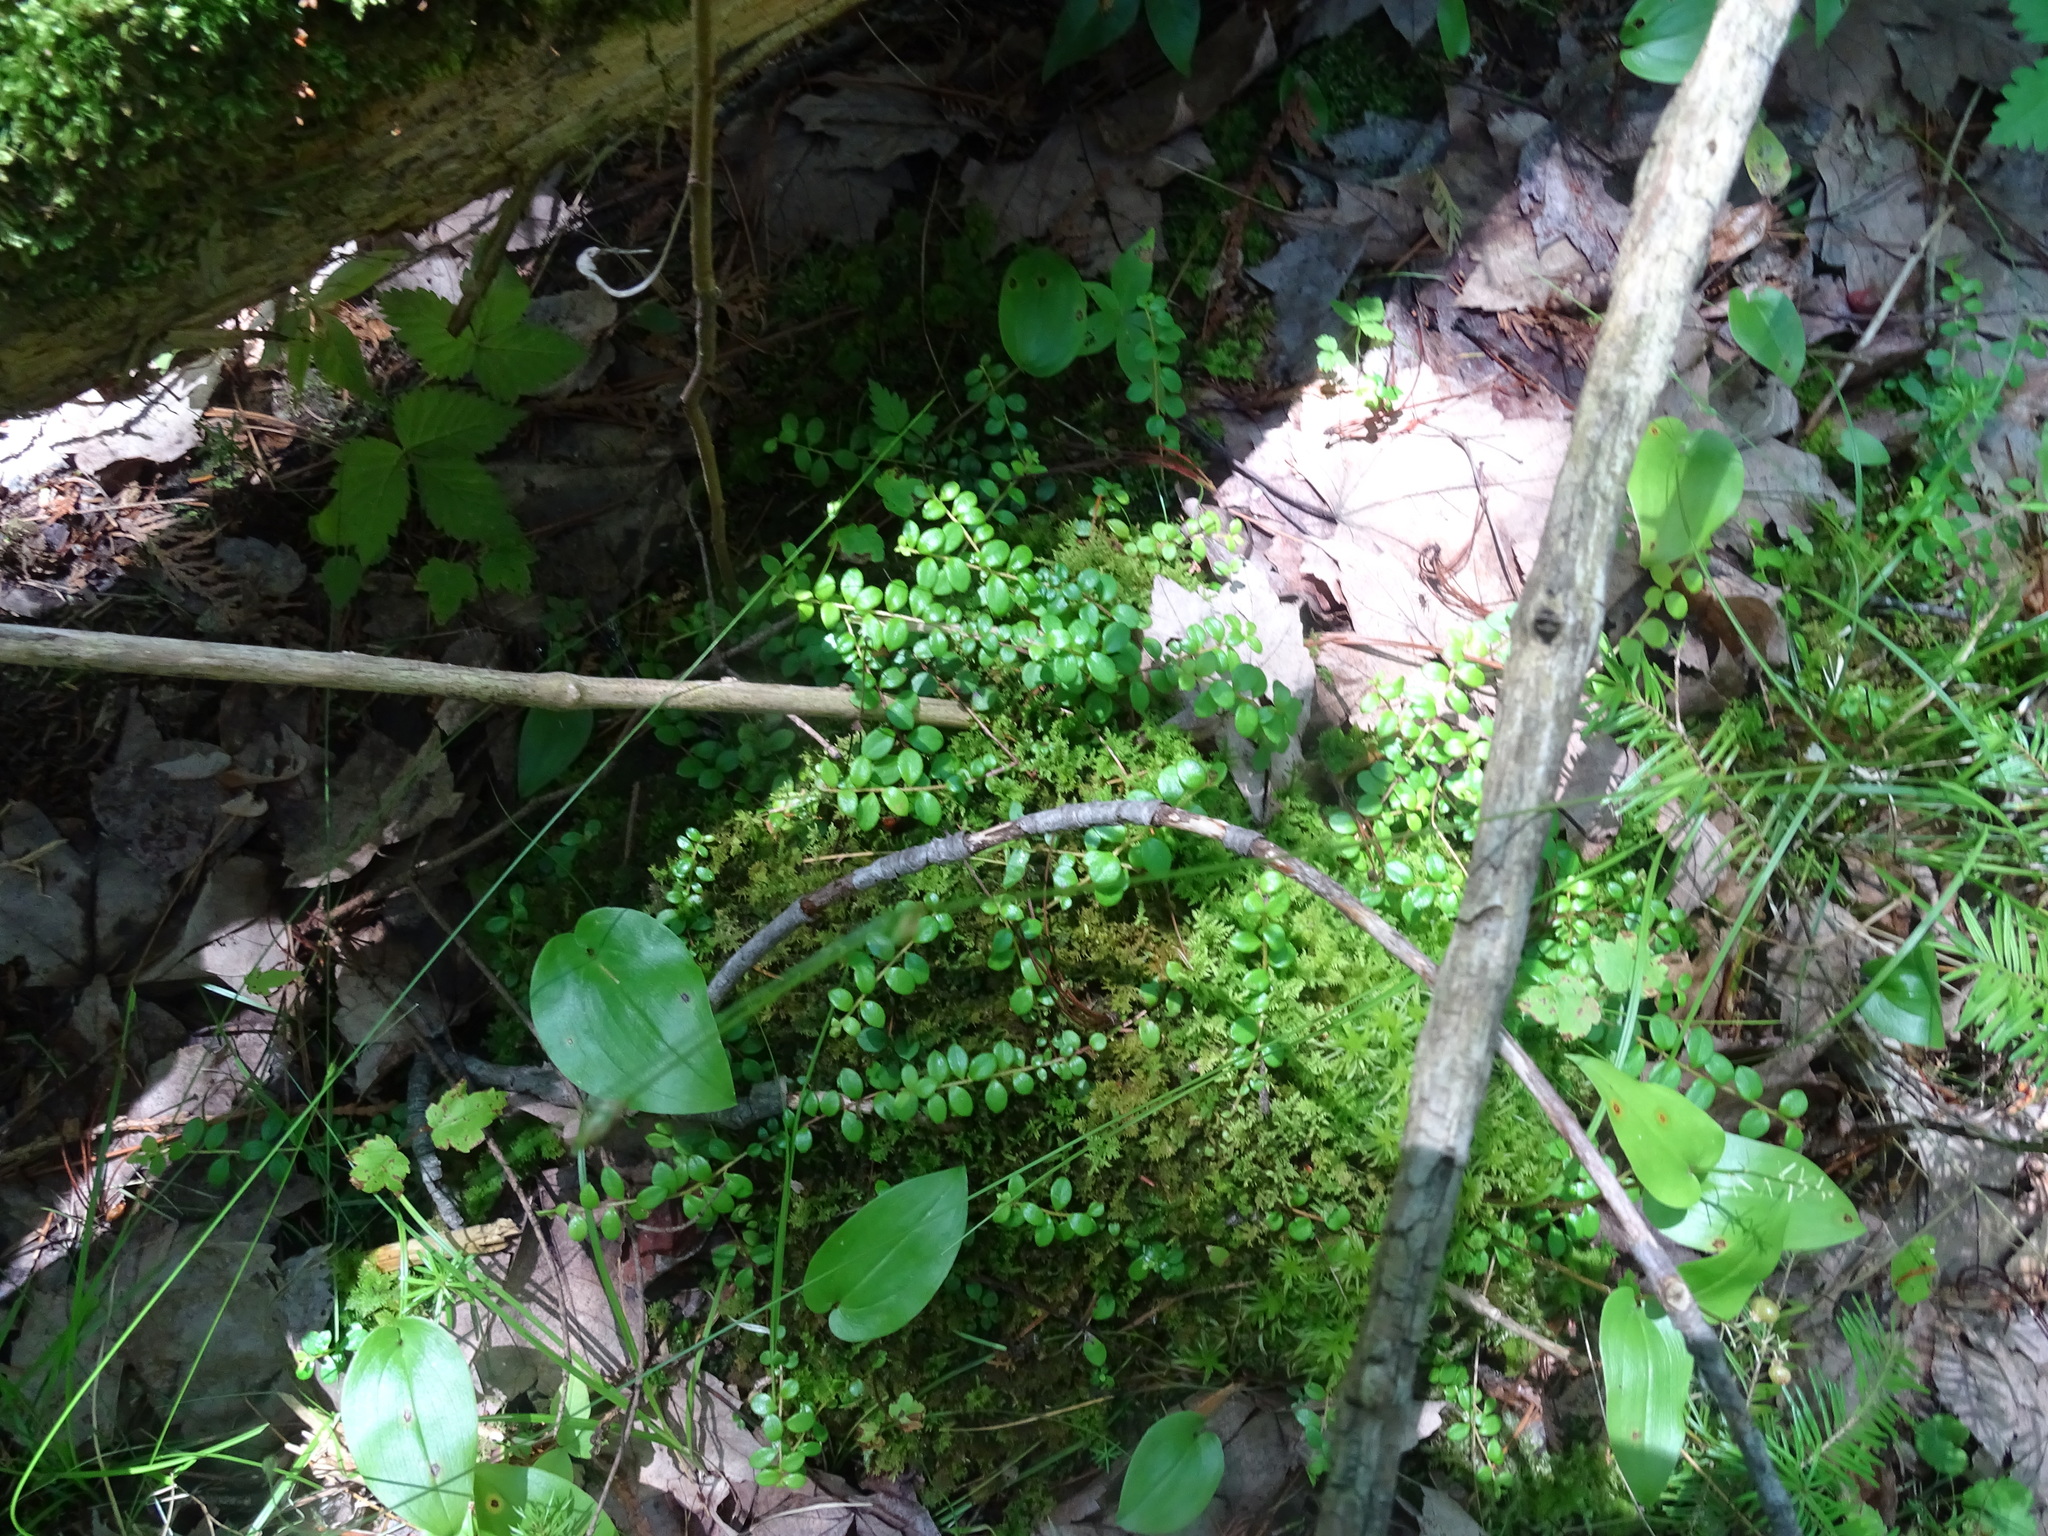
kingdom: Plantae
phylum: Tracheophyta
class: Magnoliopsida
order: Ericales
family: Ericaceae
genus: Gaultheria
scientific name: Gaultheria hispidula
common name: Cancer wintergreen
